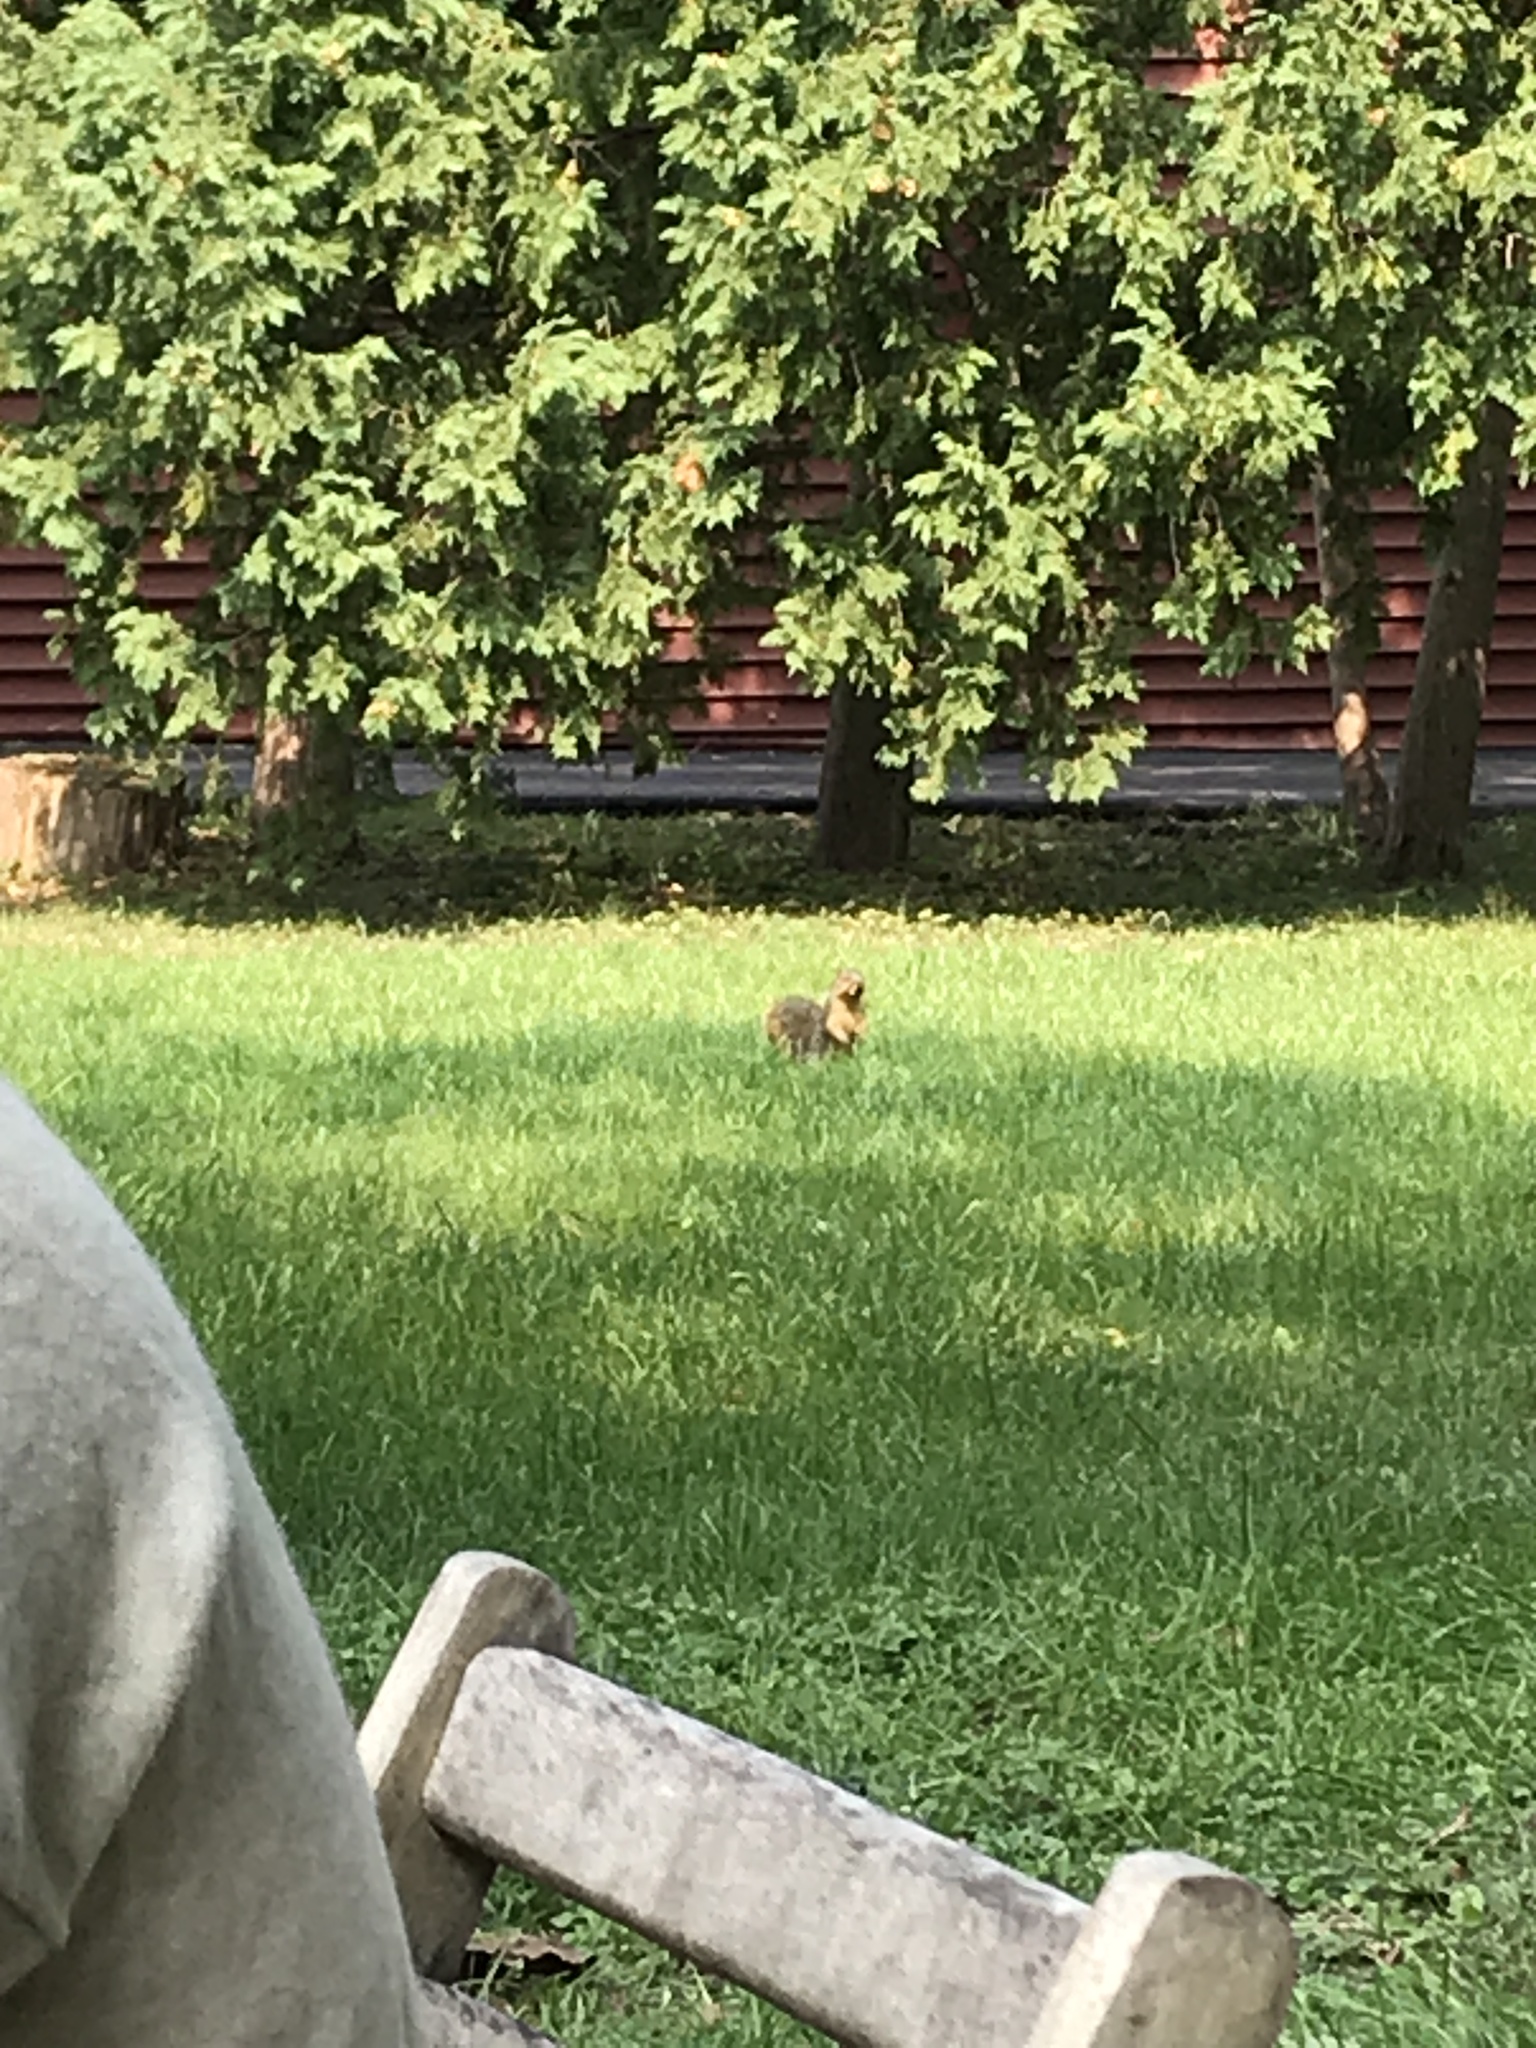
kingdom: Animalia
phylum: Chordata
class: Mammalia
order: Rodentia
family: Sciuridae
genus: Sciurus
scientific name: Sciurus niger
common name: Fox squirrel
